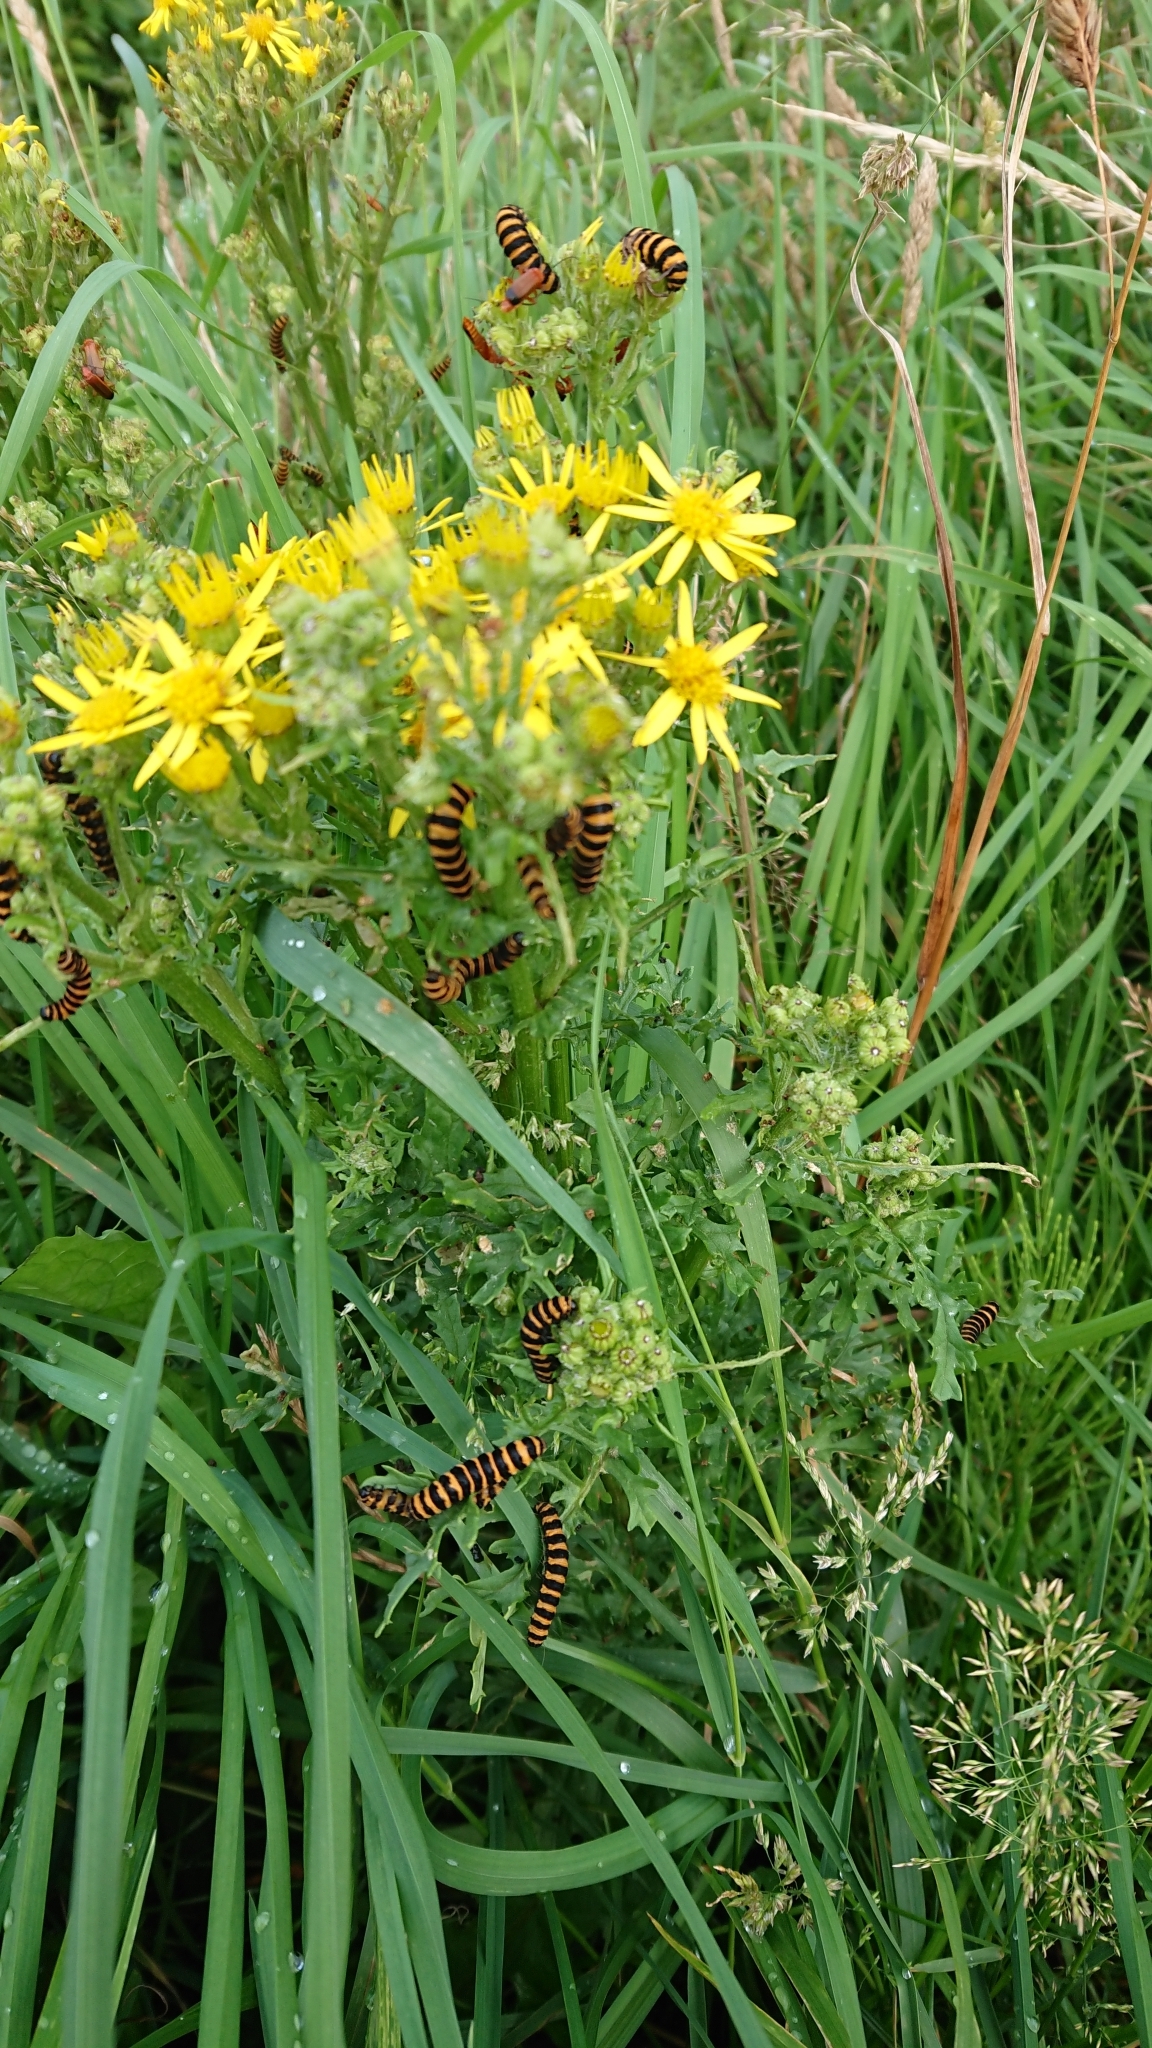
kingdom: Animalia
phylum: Arthropoda
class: Insecta
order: Lepidoptera
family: Erebidae
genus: Tyria
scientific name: Tyria jacobaeae
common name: Cinnabar
